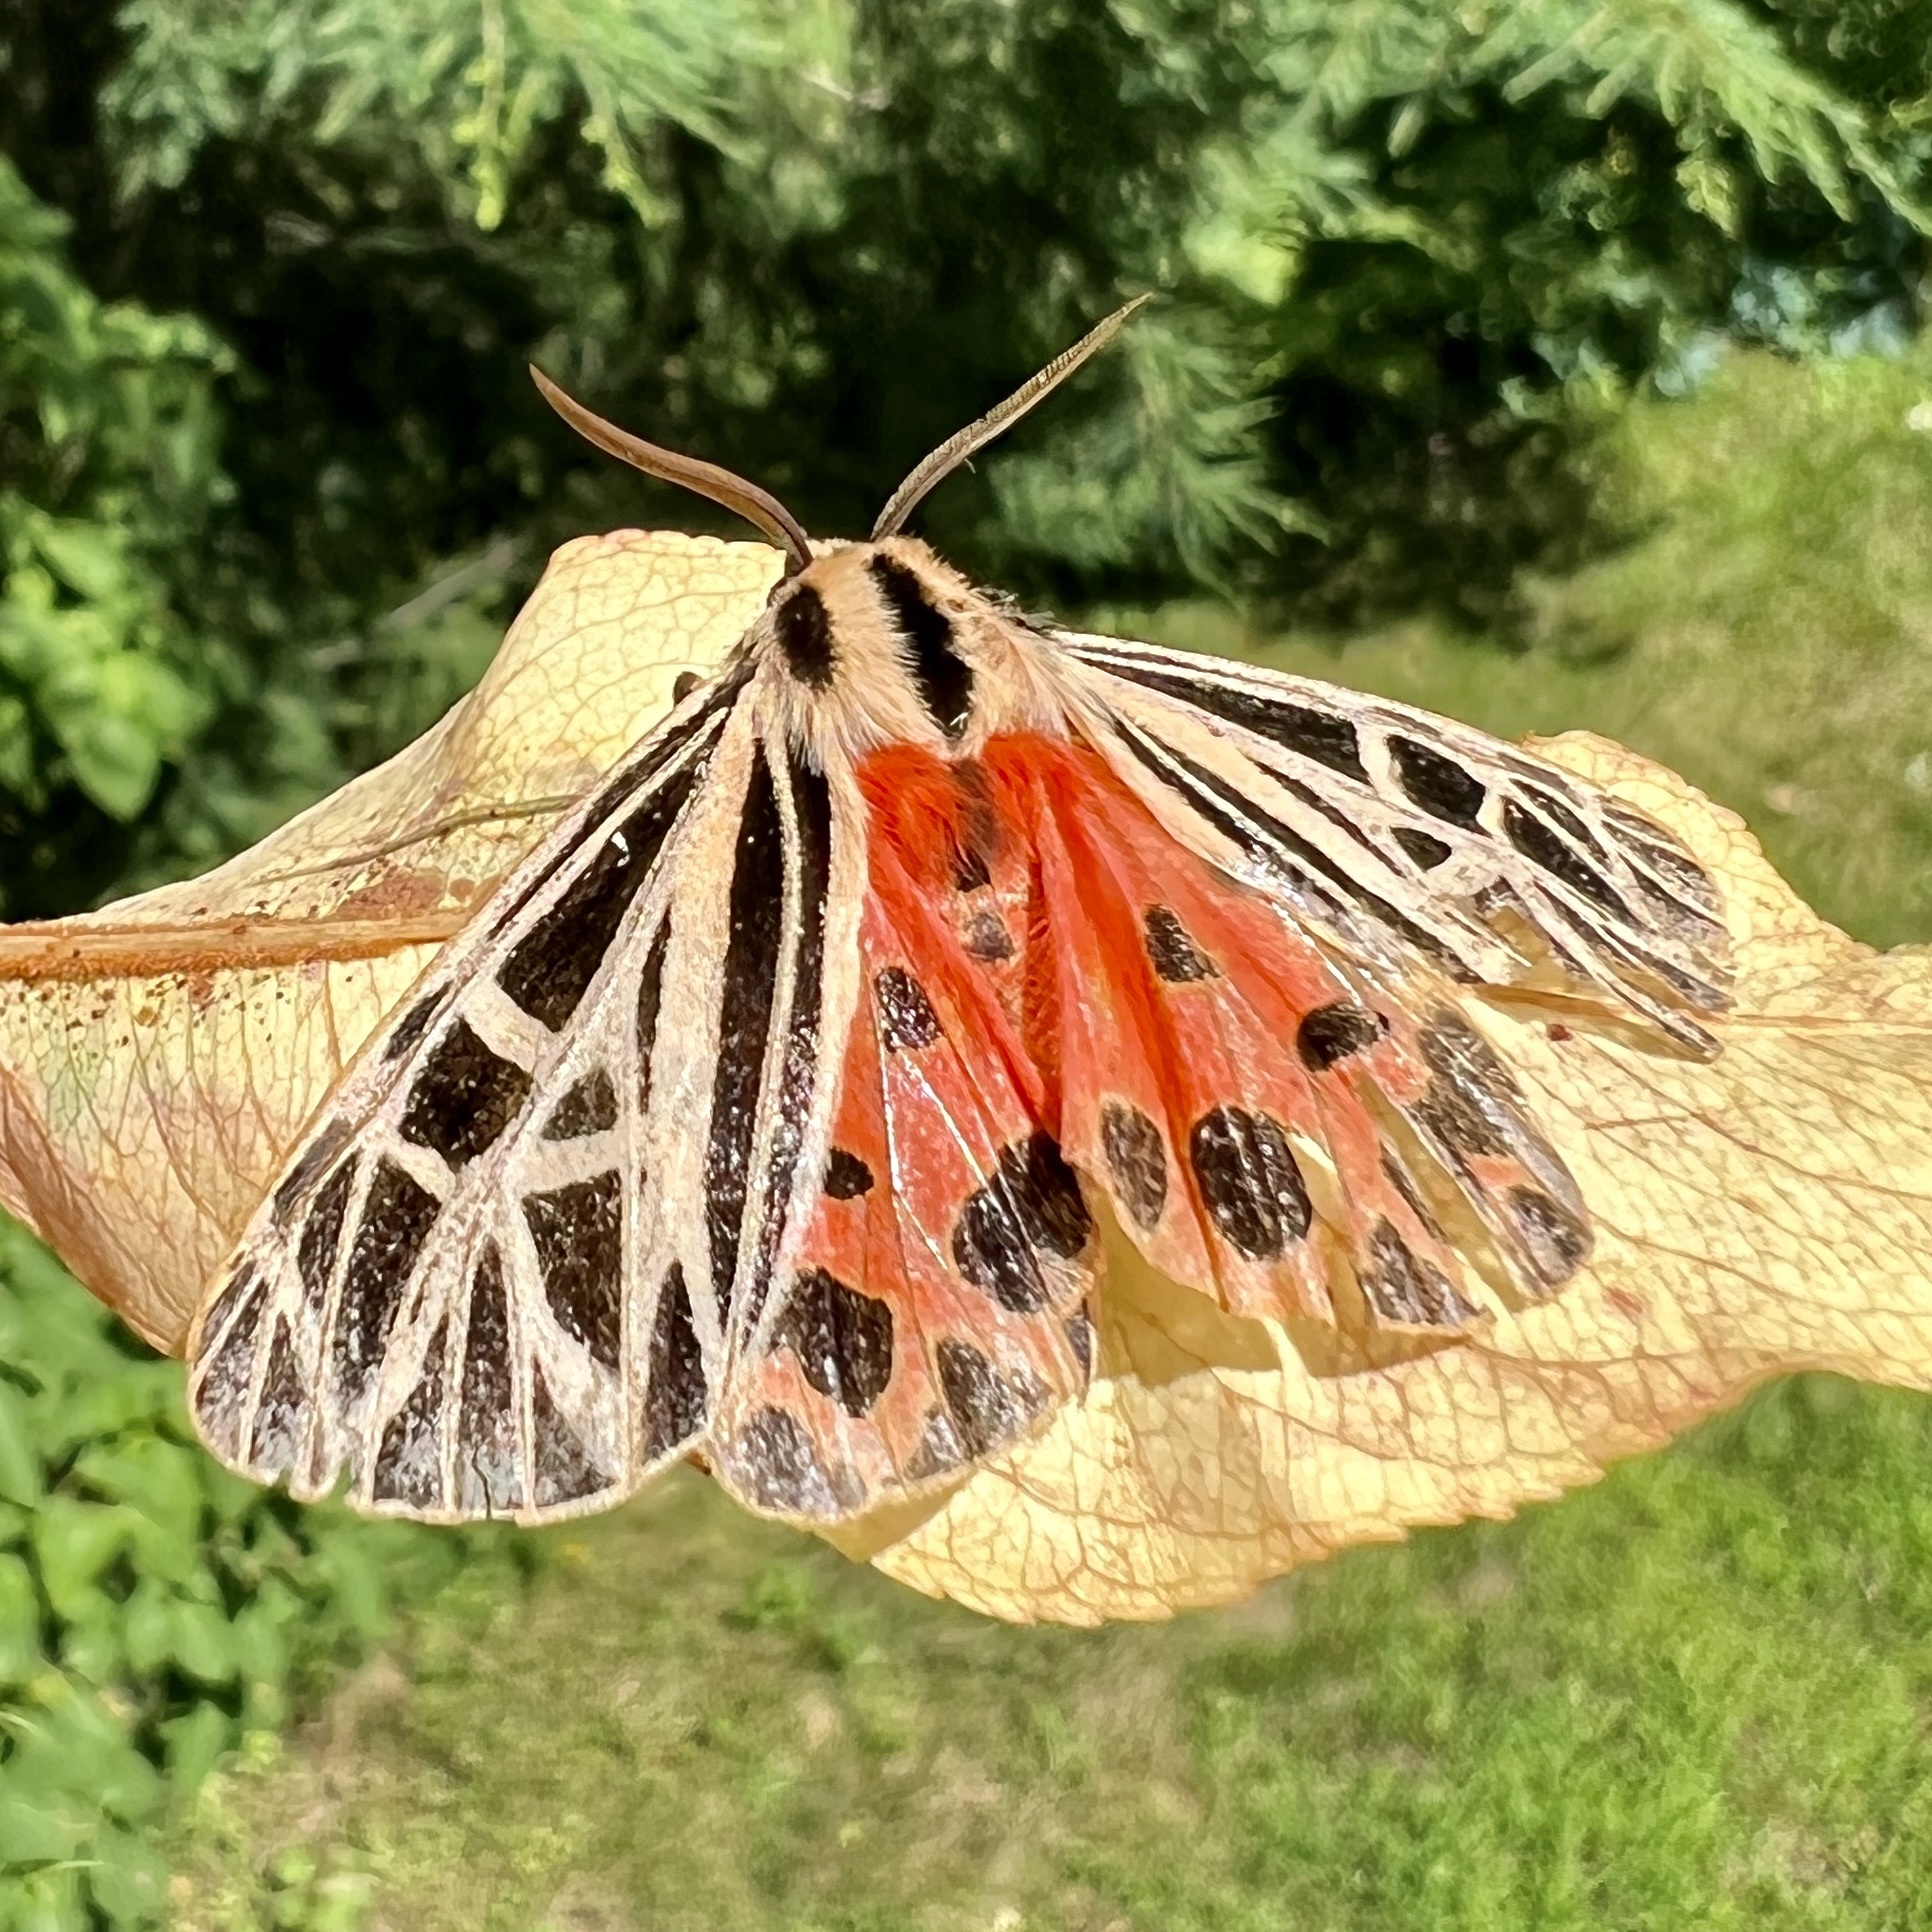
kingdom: Animalia
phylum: Arthropoda
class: Insecta
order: Lepidoptera
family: Erebidae
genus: Grammia
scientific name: Grammia virgo
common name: Virgin tiger moth
